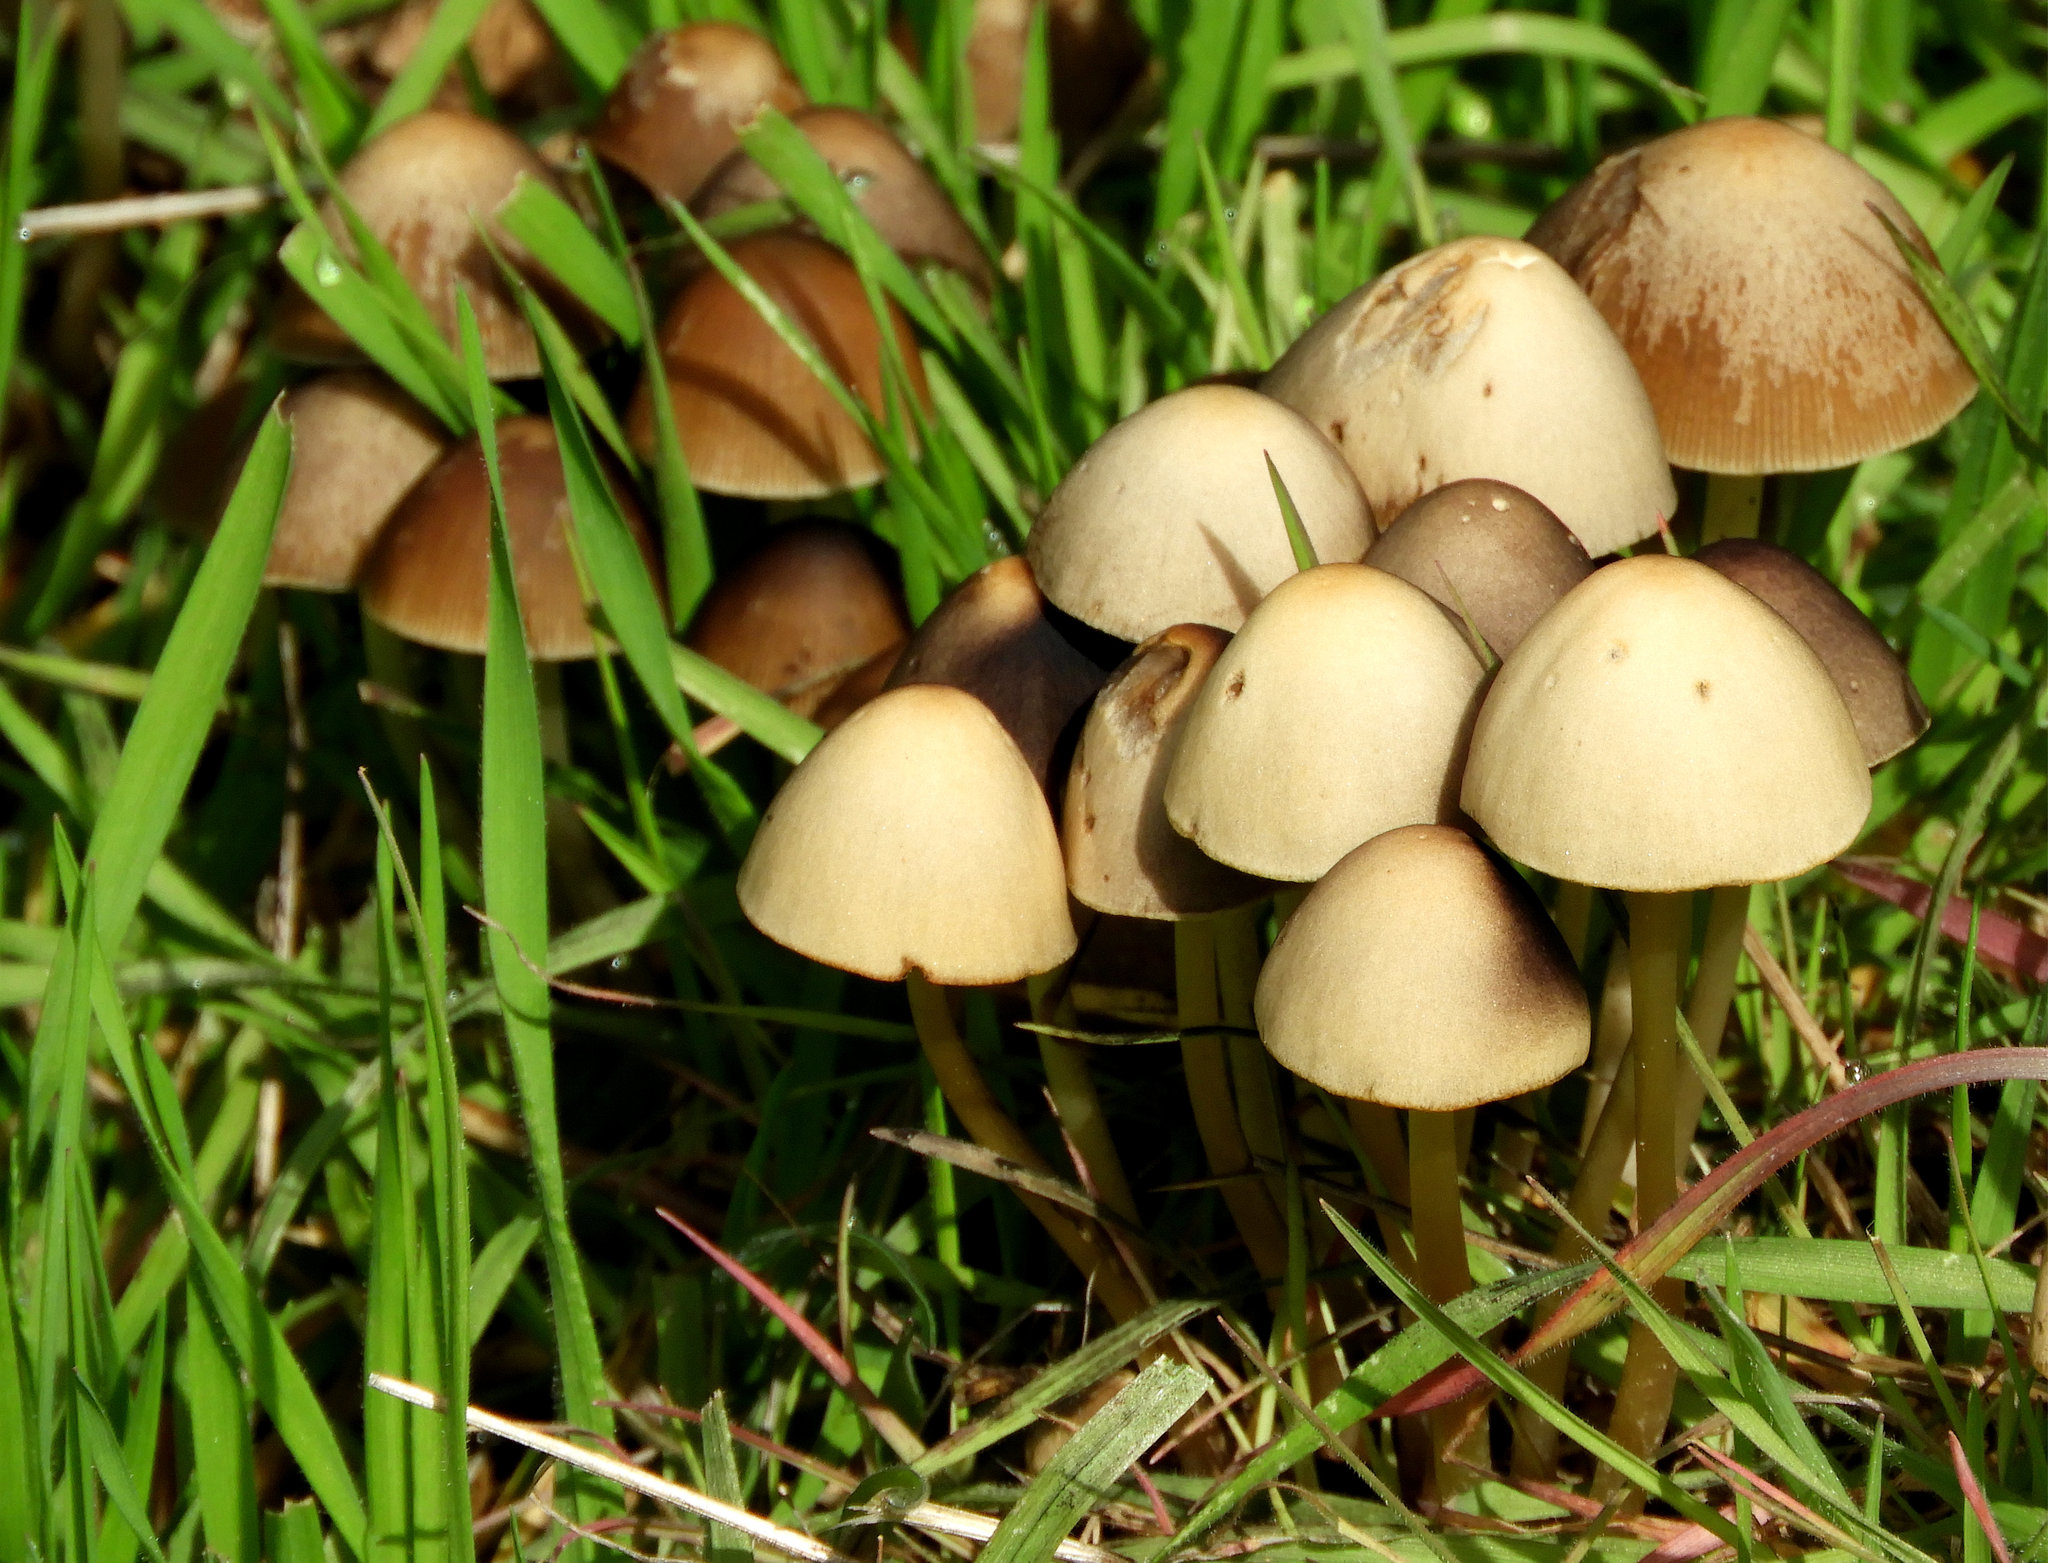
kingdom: Fungi
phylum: Basidiomycota
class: Agaricomycetes
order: Agaricales
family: Psathyrellaceae
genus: Parasola
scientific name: Parasola conopilea
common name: Conical brittlestem
